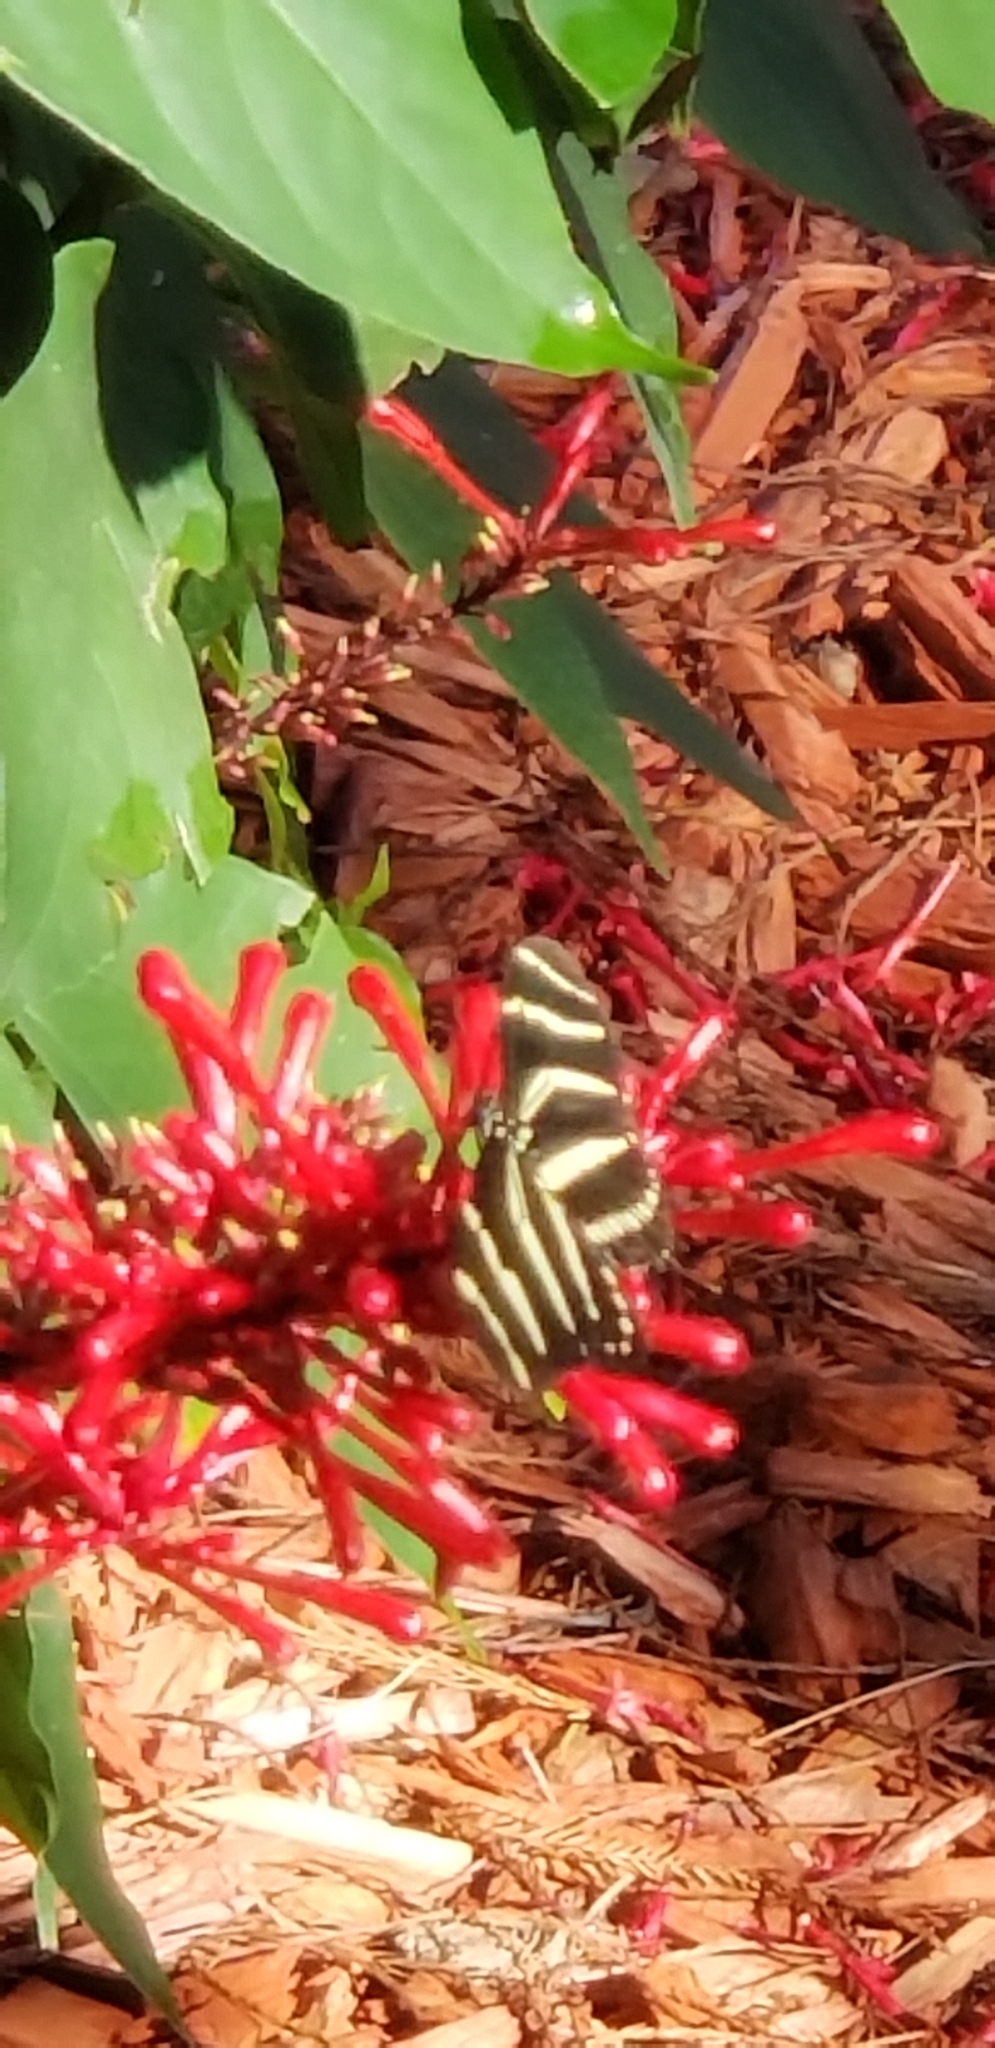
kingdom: Animalia
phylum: Arthropoda
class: Insecta
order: Lepidoptera
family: Nymphalidae
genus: Heliconius
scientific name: Heliconius charithonia
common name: Zebra long wing
